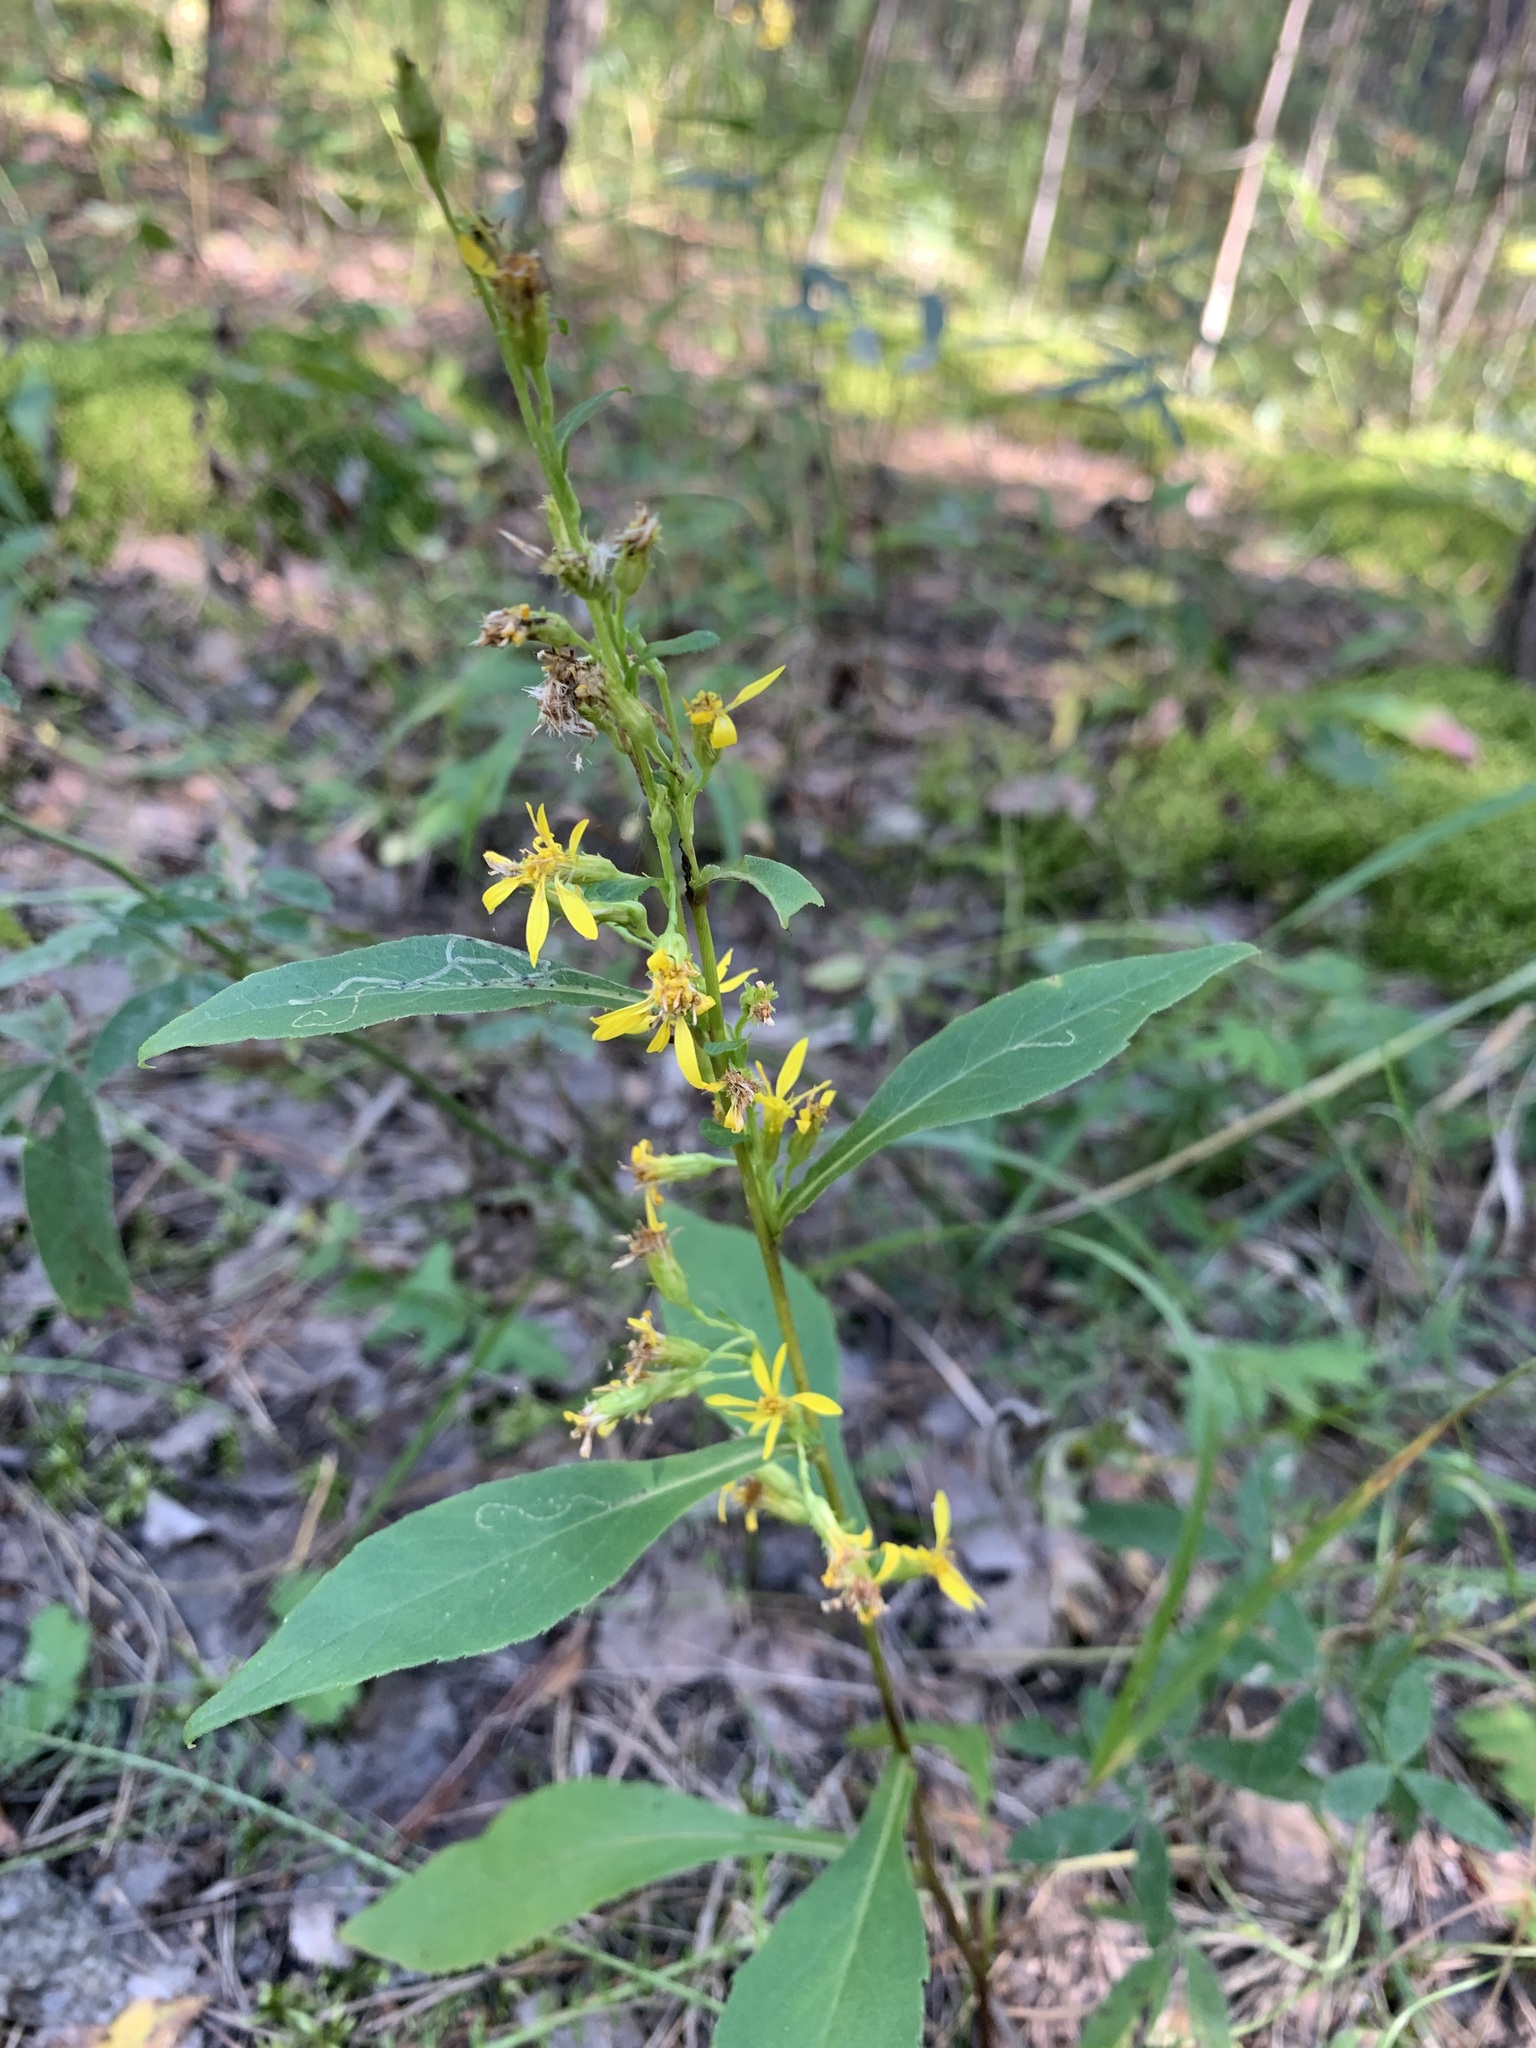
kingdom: Plantae
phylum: Tracheophyta
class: Magnoliopsida
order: Asterales
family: Asteraceae
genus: Solidago
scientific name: Solidago virgaurea
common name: Goldenrod
